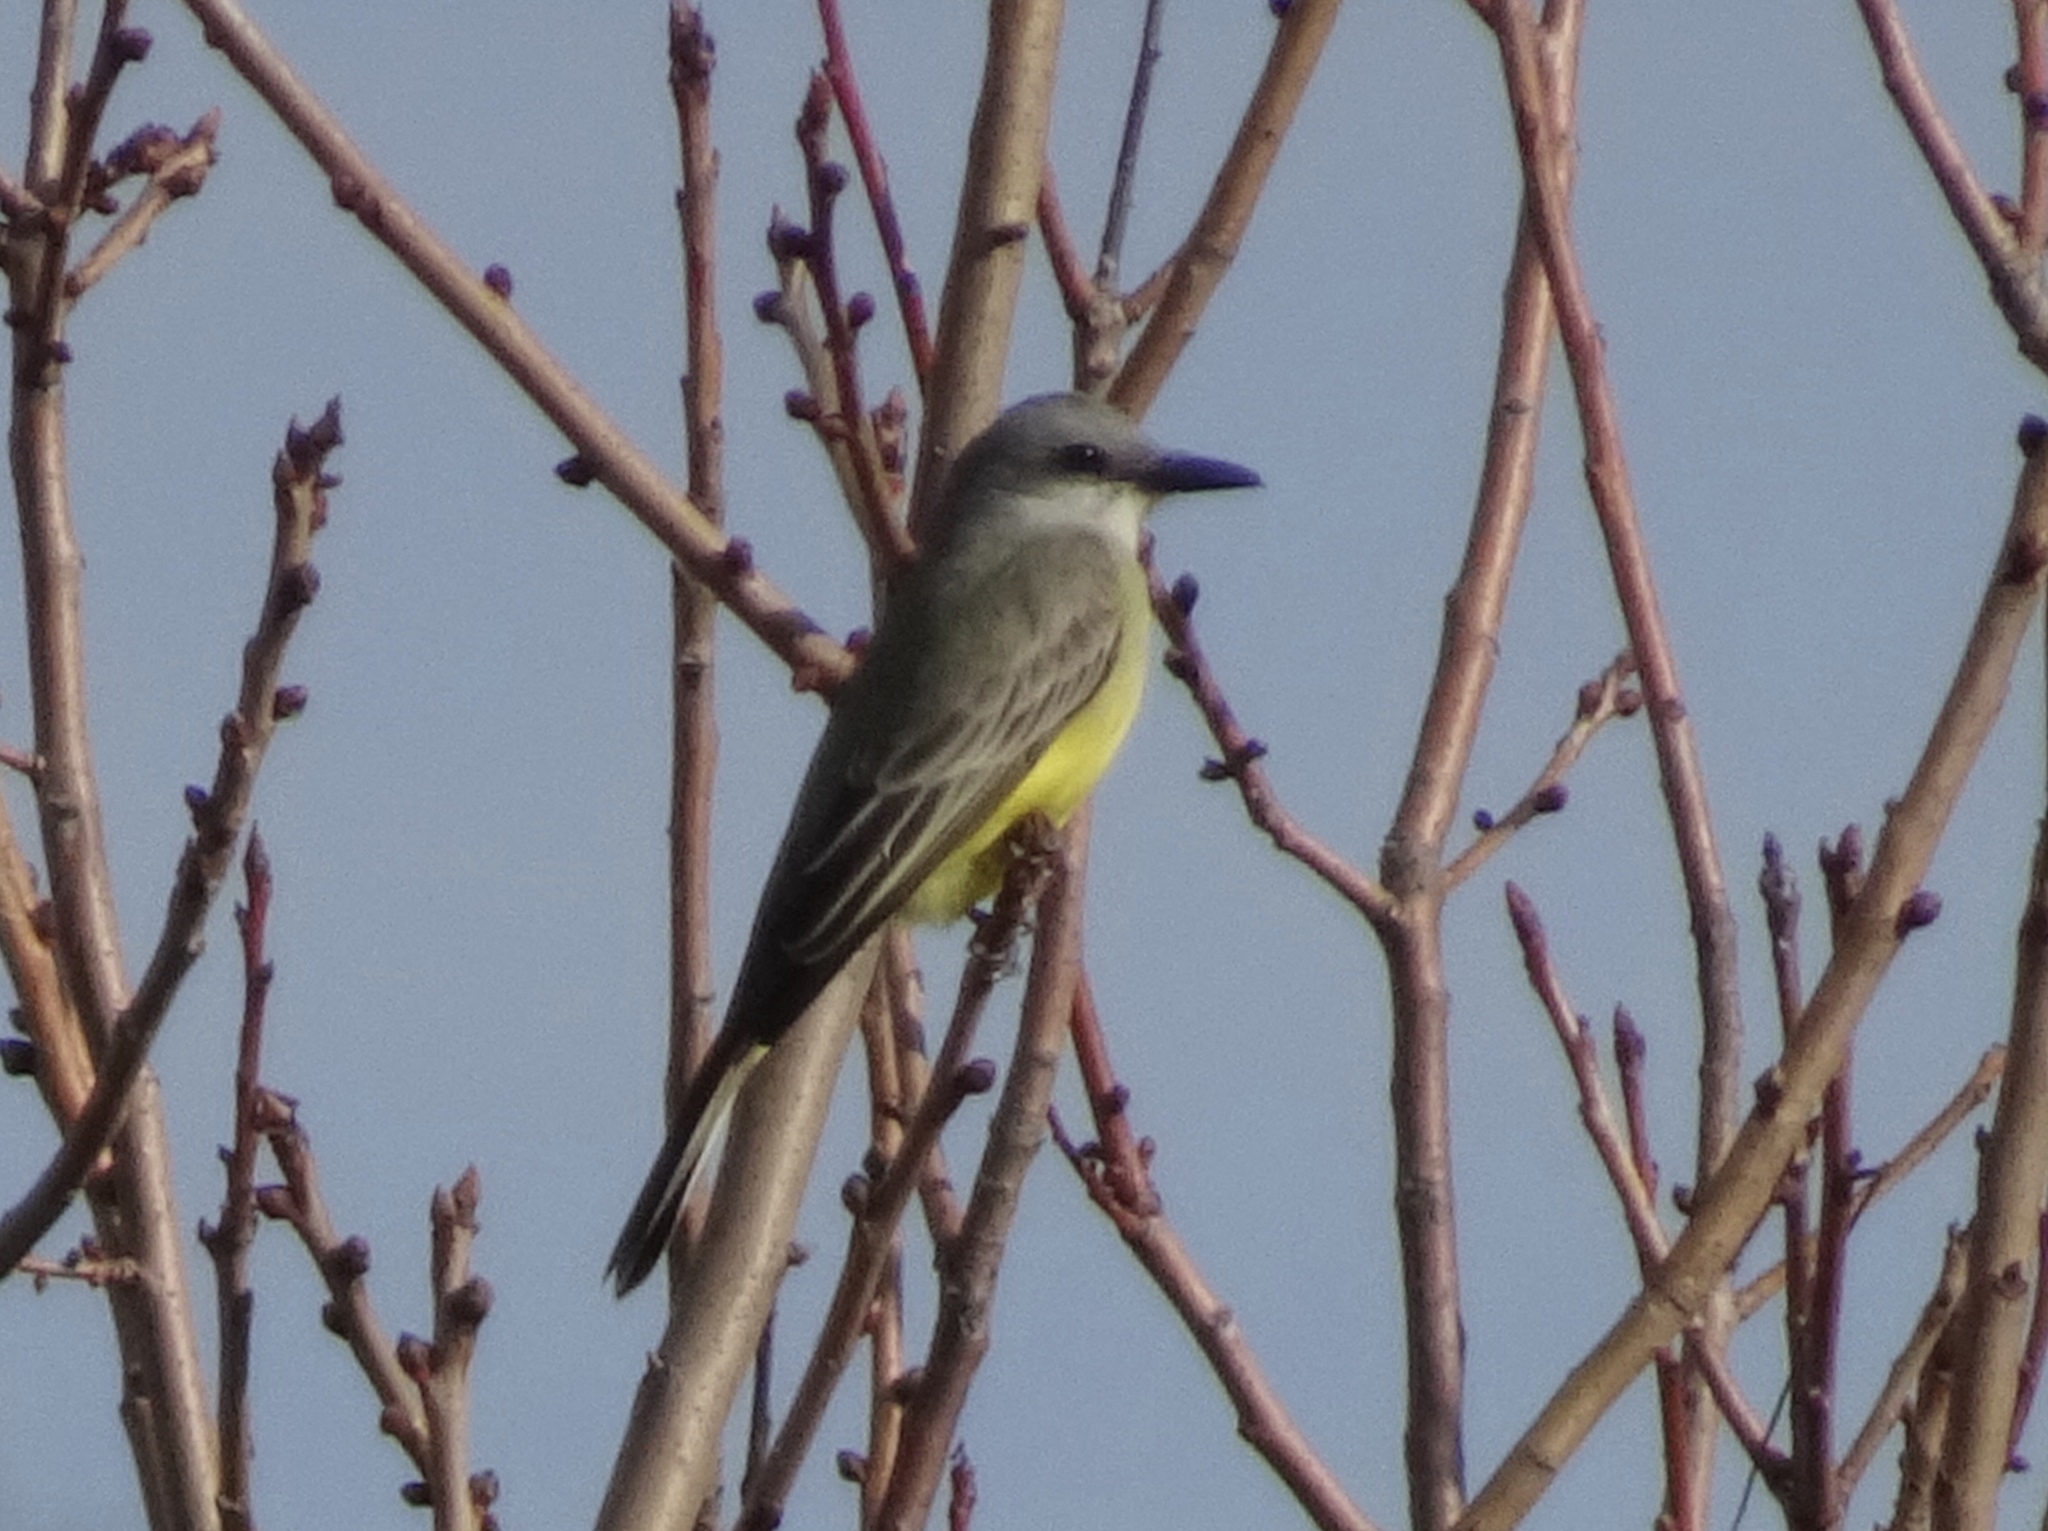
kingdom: Animalia
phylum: Chordata
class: Aves
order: Passeriformes
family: Tyrannidae
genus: Tyrannus
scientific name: Tyrannus melancholicus
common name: Tropical kingbird
